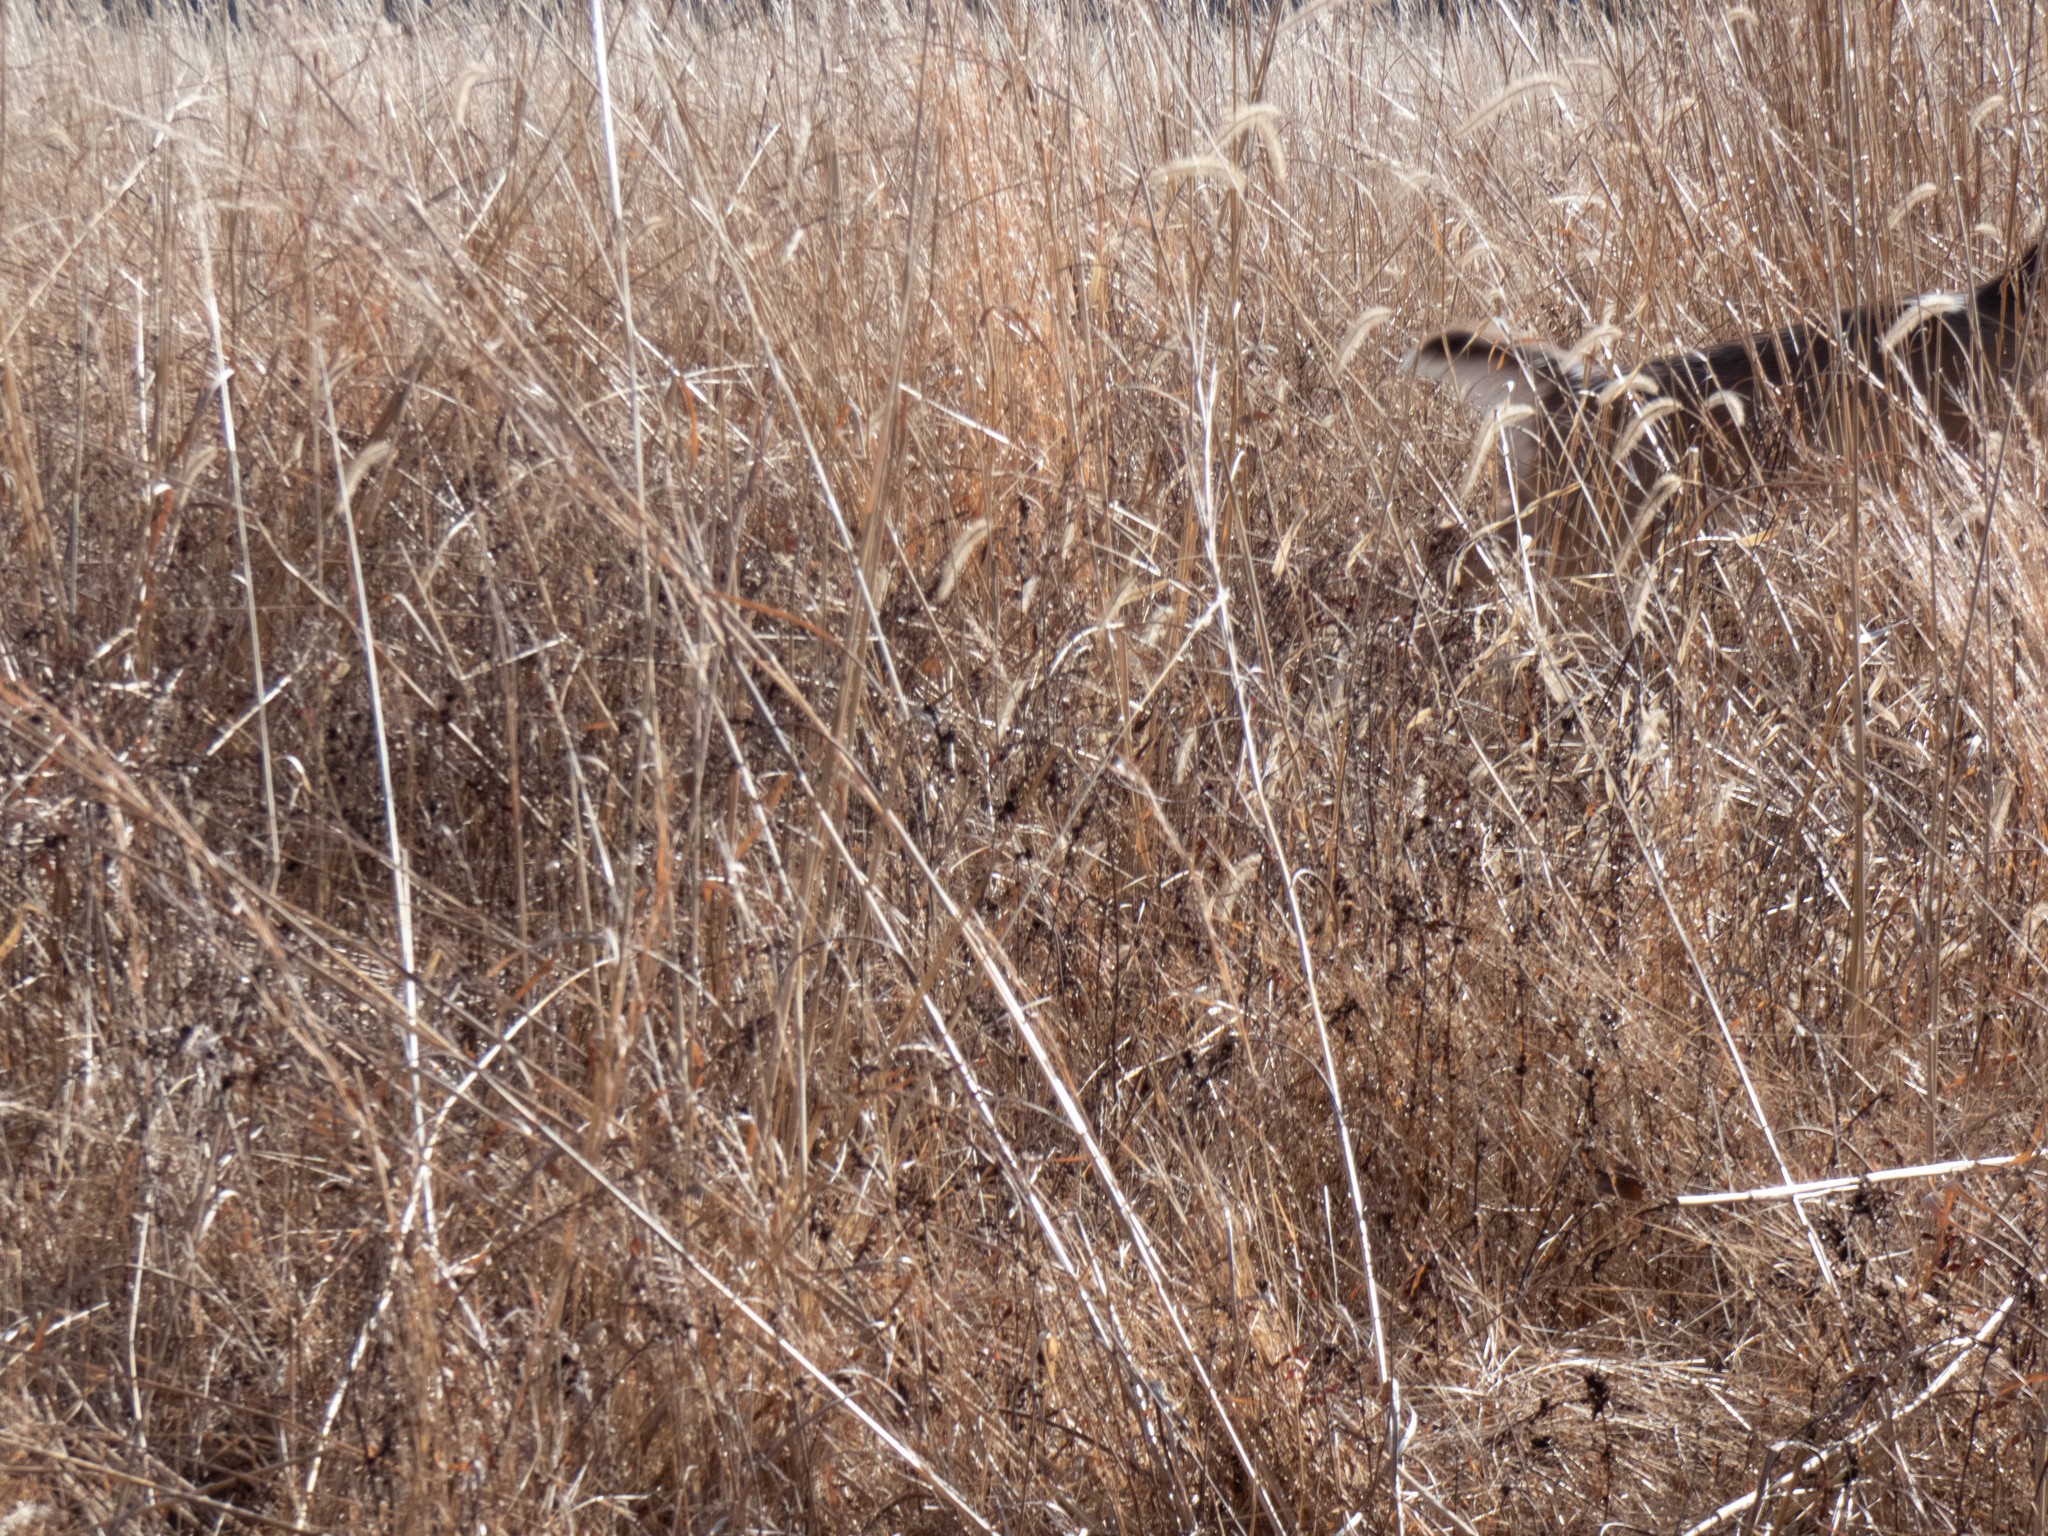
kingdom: Animalia
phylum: Chordata
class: Mammalia
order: Artiodactyla
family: Cervidae
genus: Odocoileus
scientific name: Odocoileus virginianus
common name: White-tailed deer
